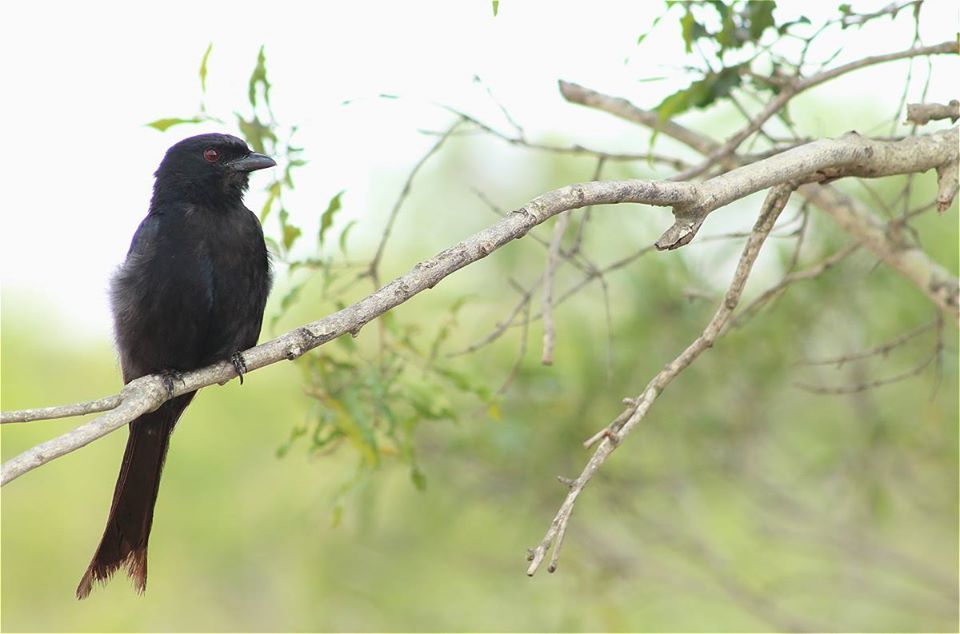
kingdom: Animalia
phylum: Chordata
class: Aves
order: Passeriformes
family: Dicruridae
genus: Dicrurus
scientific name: Dicrurus adsimilis
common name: Fork-tailed drongo
